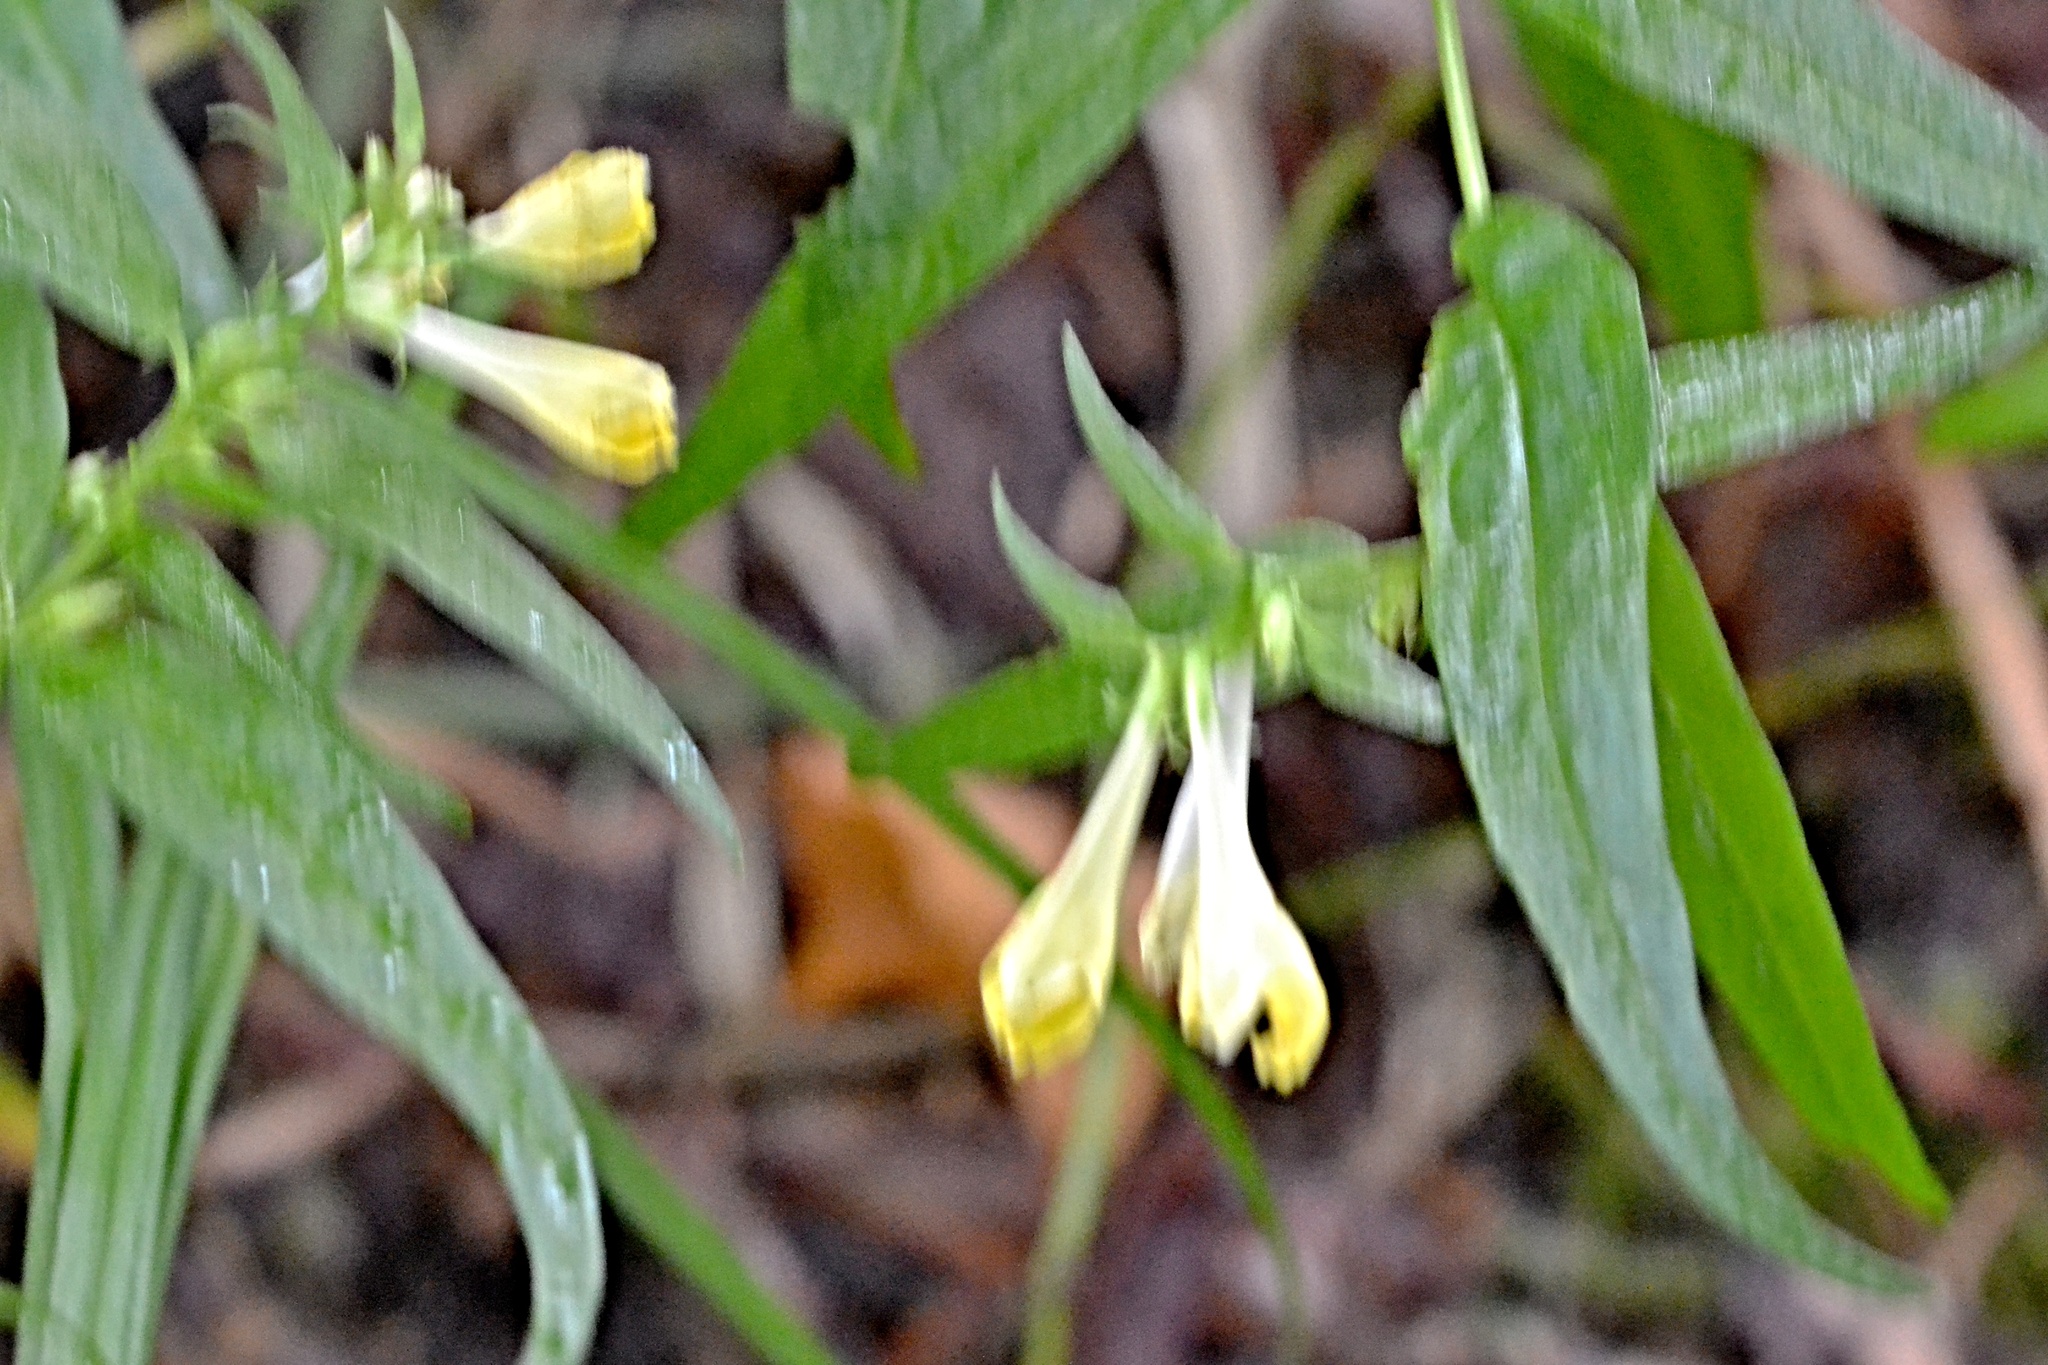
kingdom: Plantae
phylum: Tracheophyta
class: Magnoliopsida
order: Lamiales
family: Orobanchaceae
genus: Melampyrum
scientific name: Melampyrum pratense
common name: Common cow-wheat
